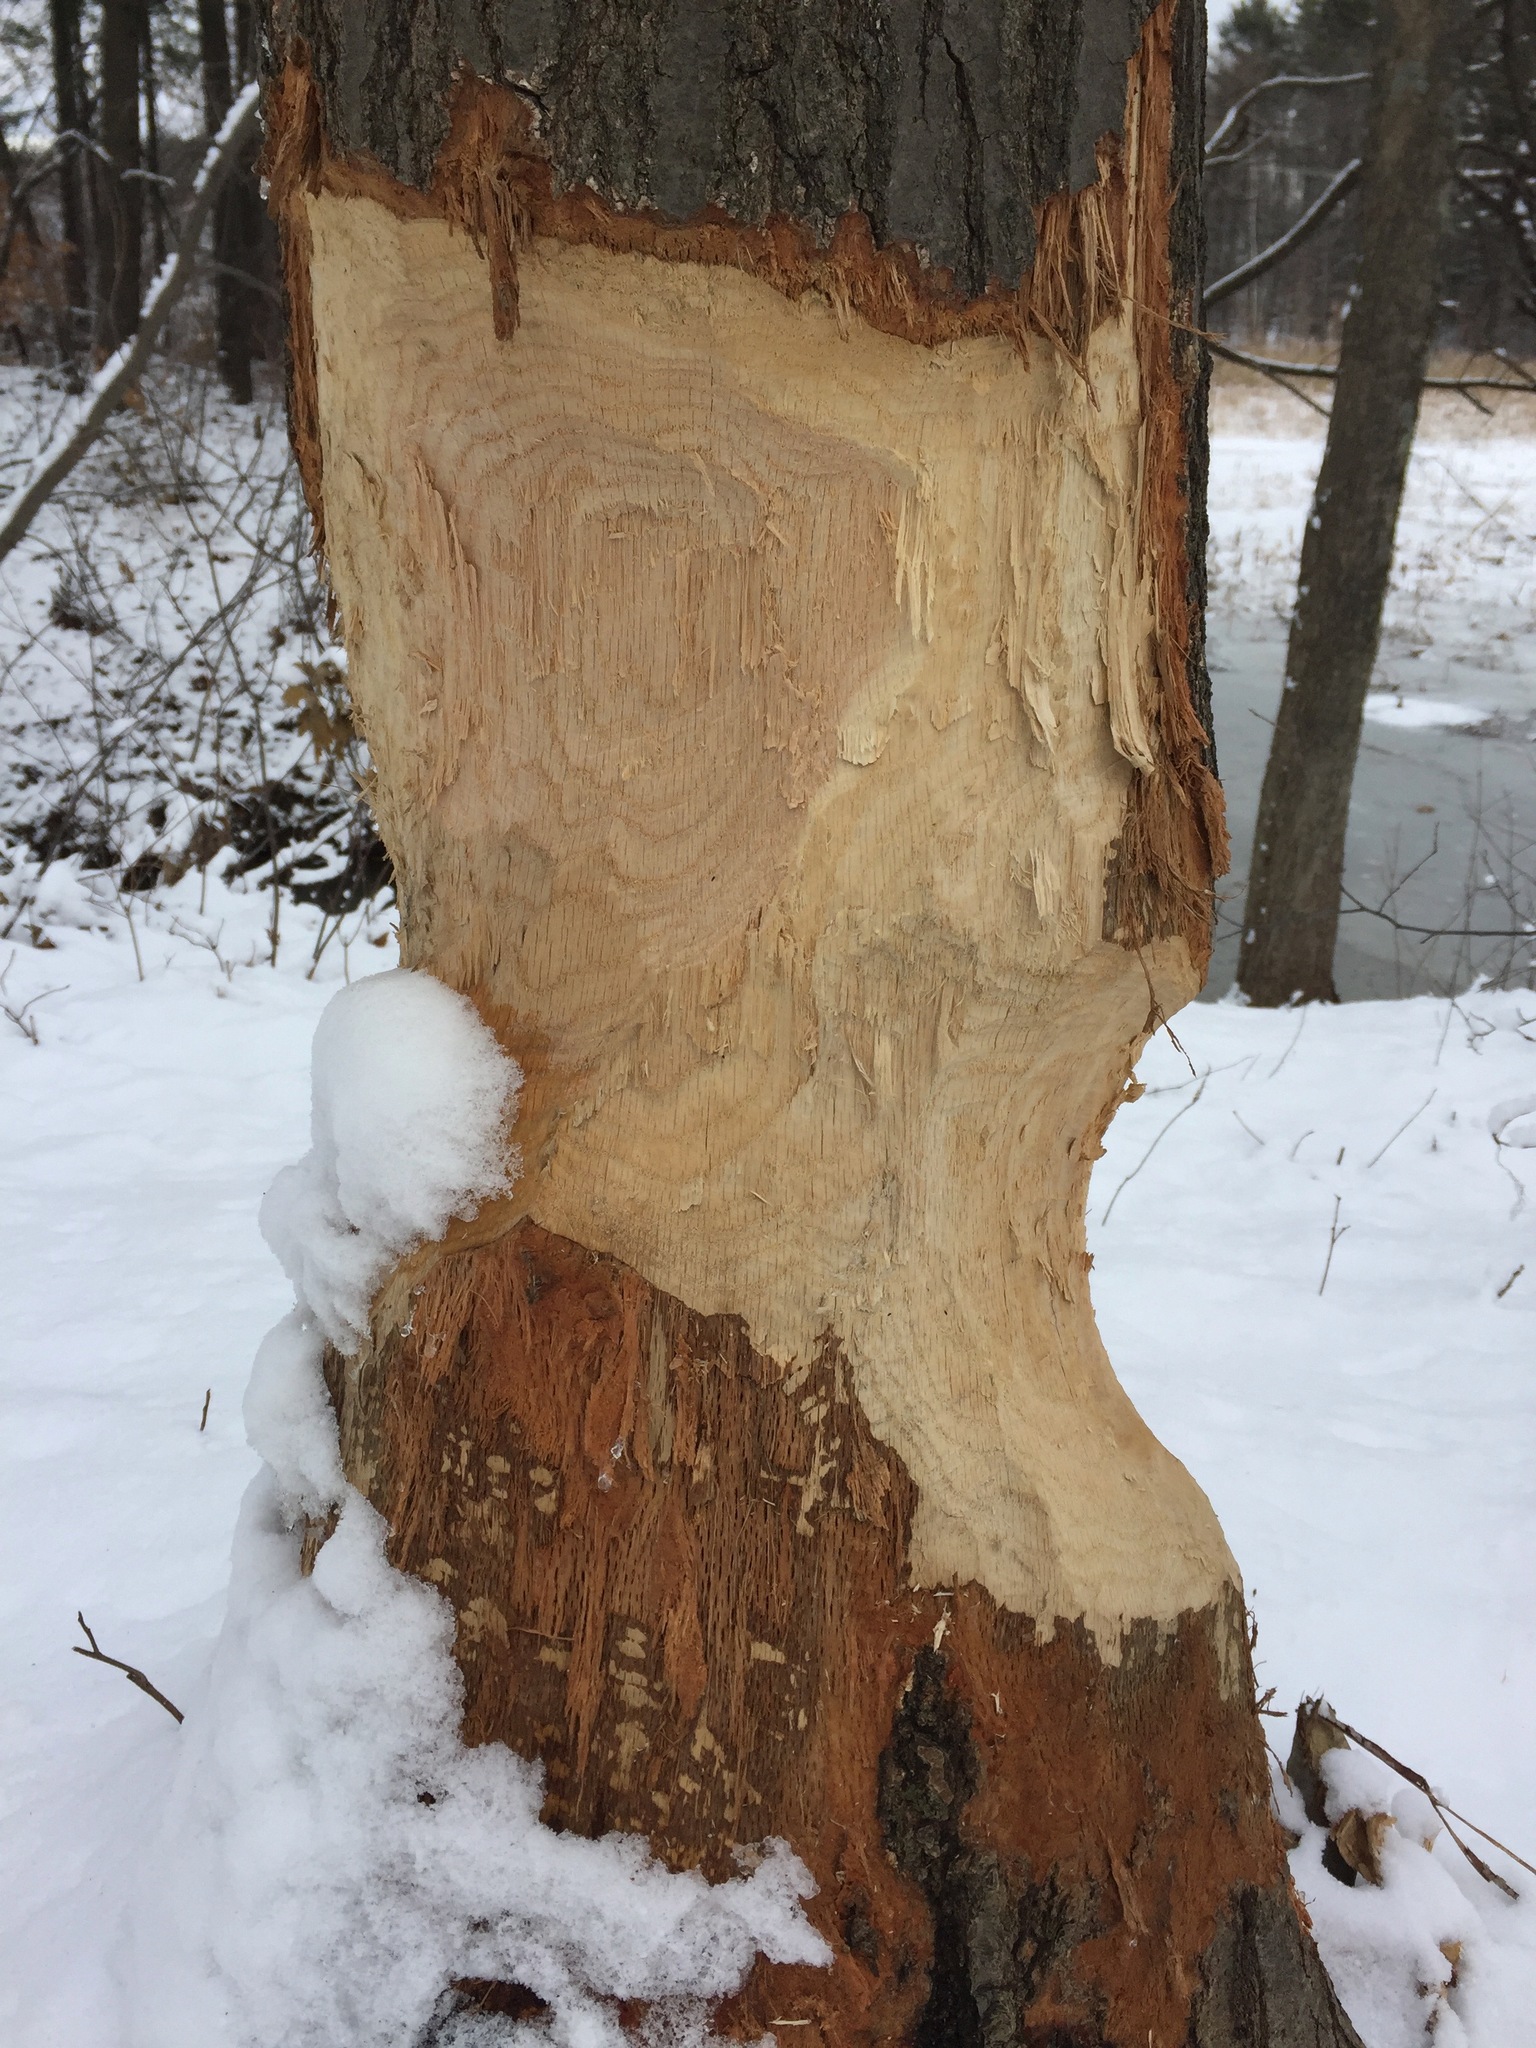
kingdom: Animalia
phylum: Chordata
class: Mammalia
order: Rodentia
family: Castoridae
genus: Castor
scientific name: Castor canadensis
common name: American beaver
